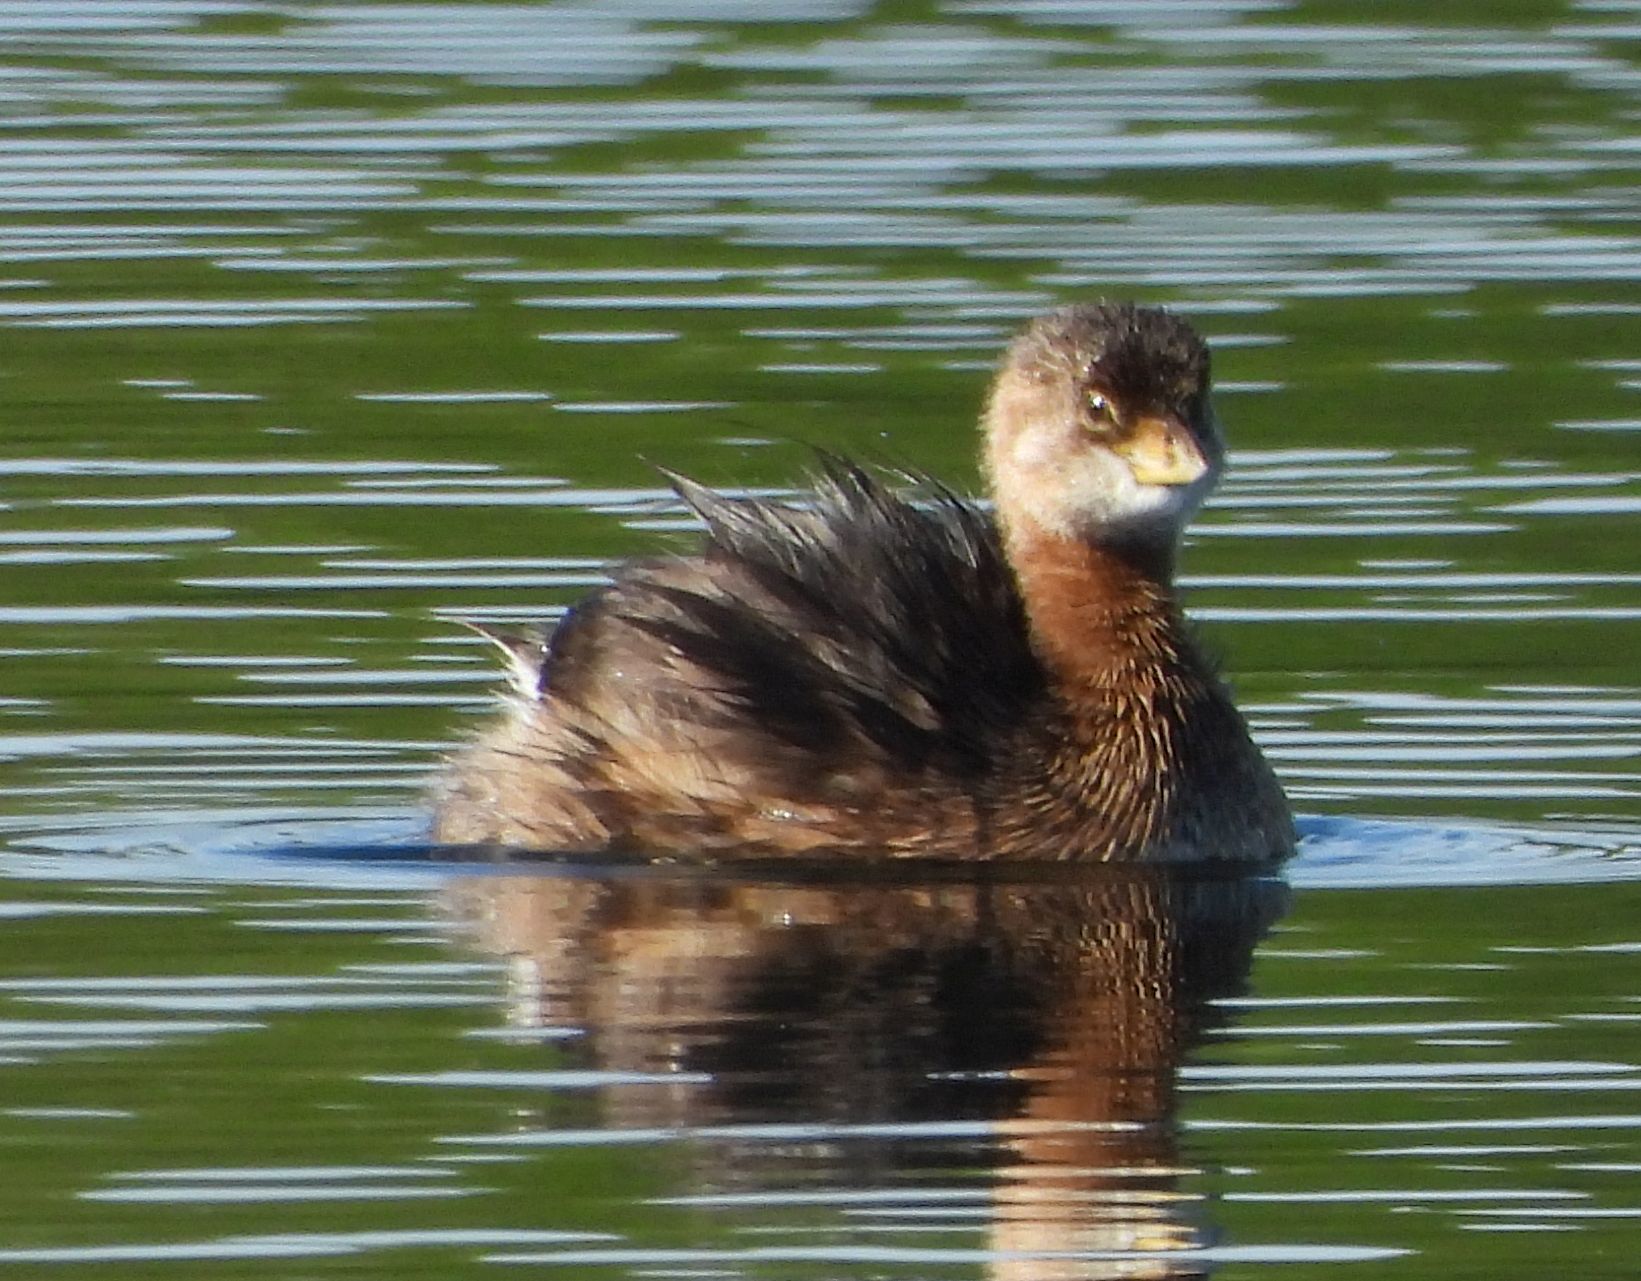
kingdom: Animalia
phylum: Chordata
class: Aves
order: Podicipediformes
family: Podicipedidae
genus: Podilymbus
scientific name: Podilymbus podiceps
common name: Pied-billed grebe
